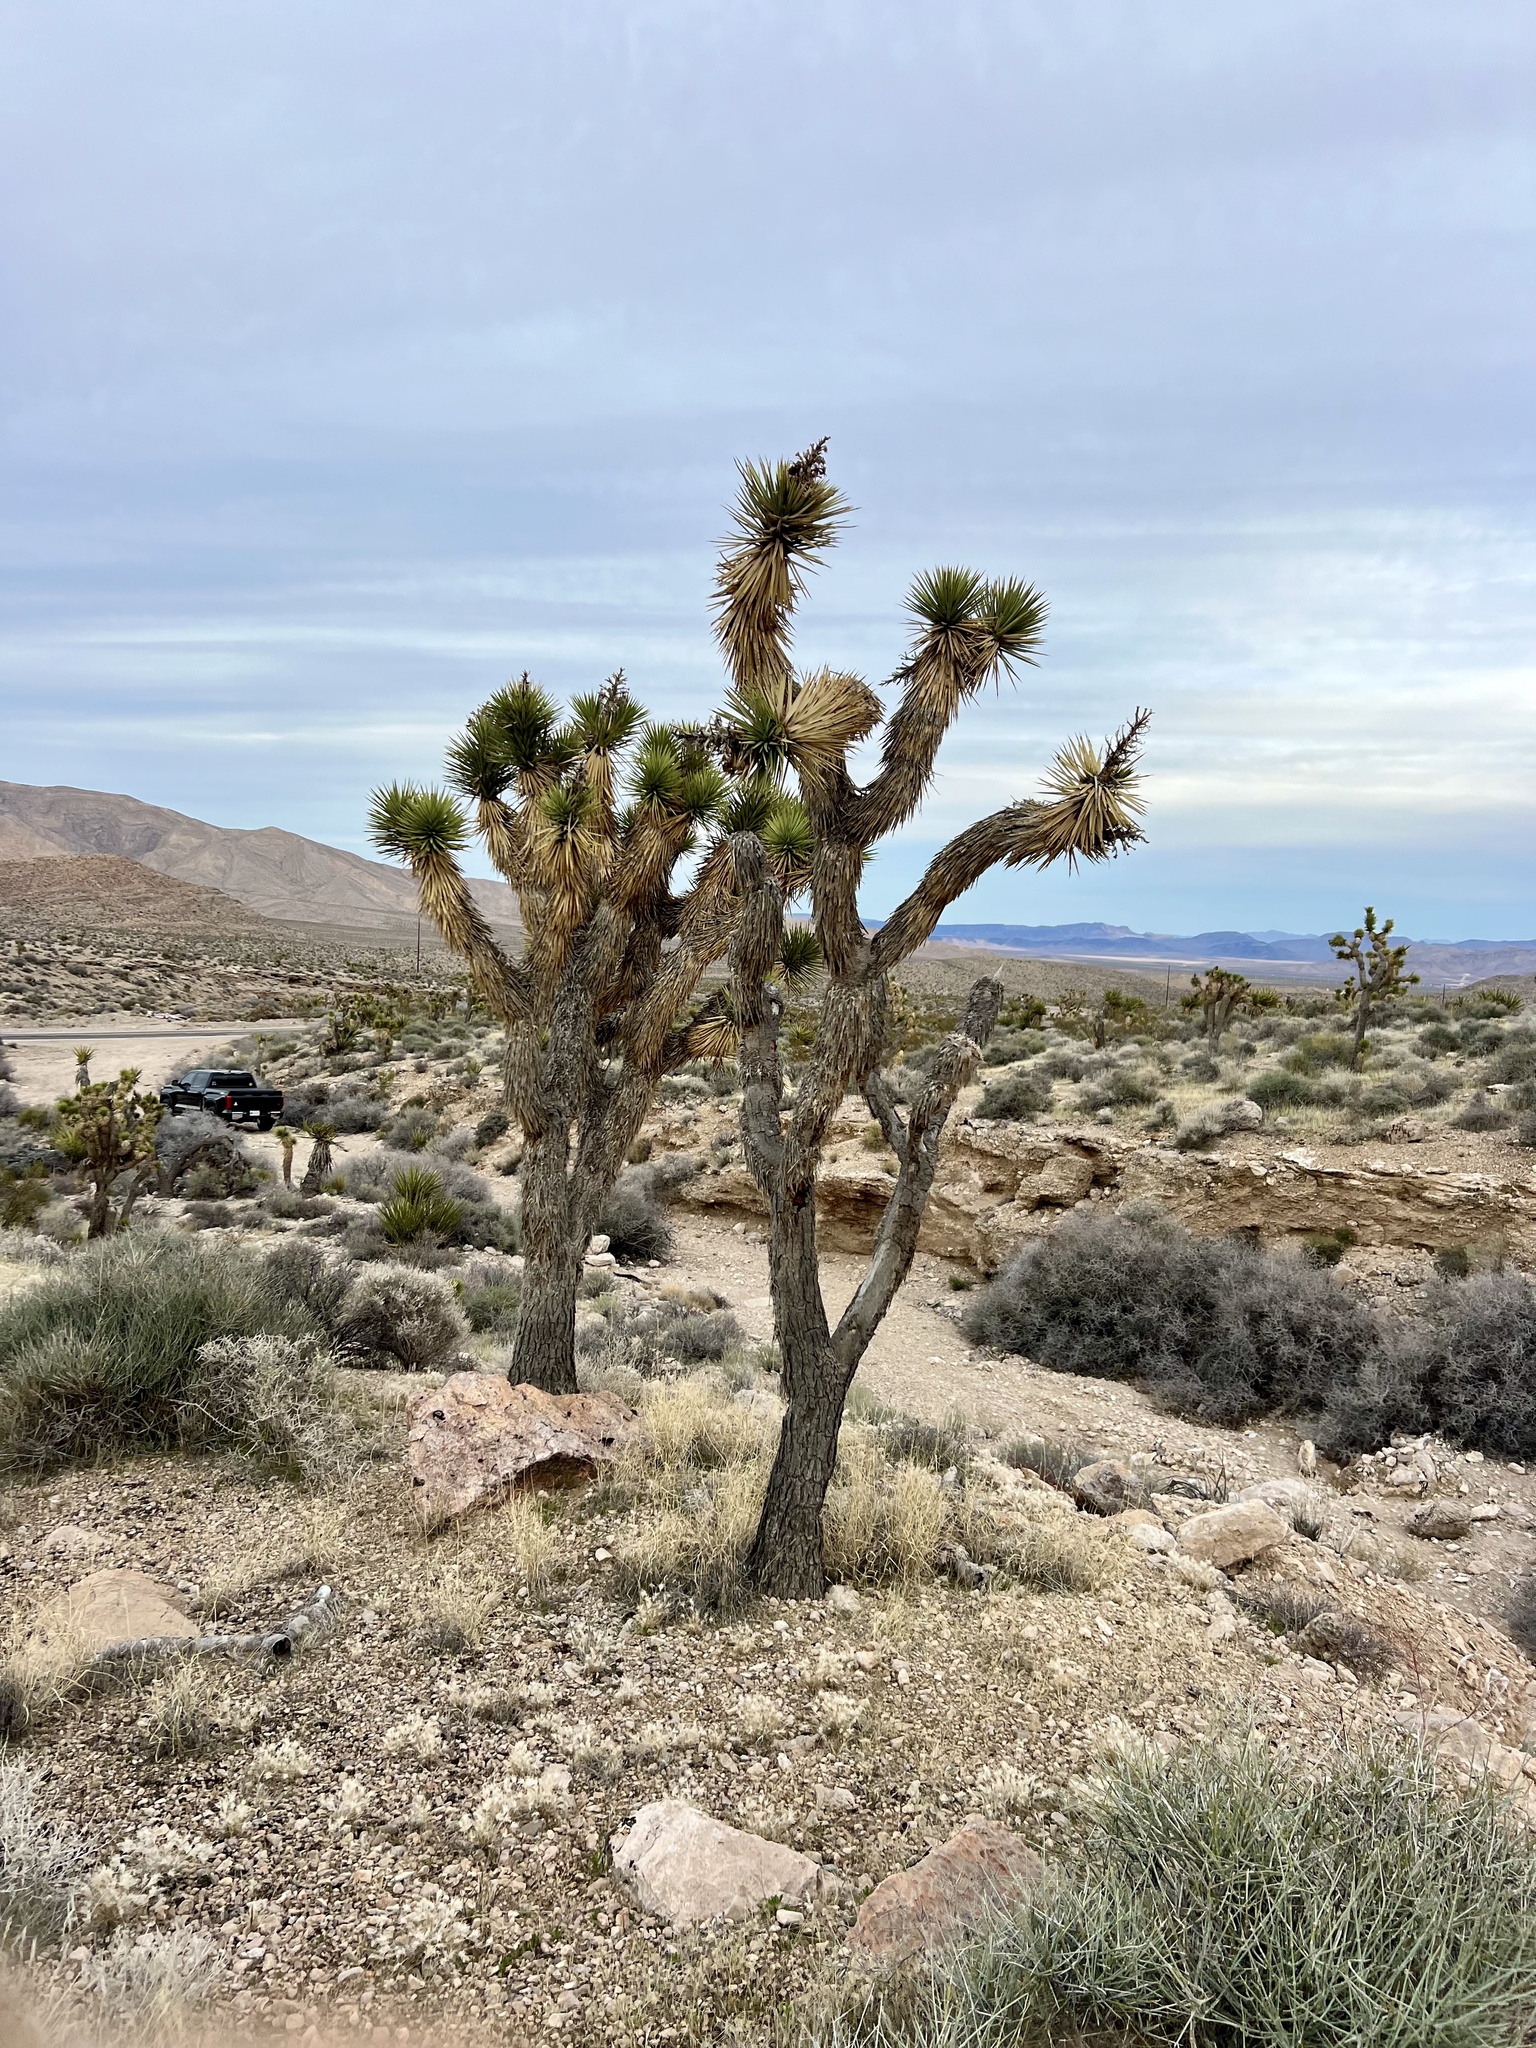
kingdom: Plantae
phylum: Tracheophyta
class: Liliopsida
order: Asparagales
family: Asparagaceae
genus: Yucca
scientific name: Yucca brevifolia
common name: Joshua tree
